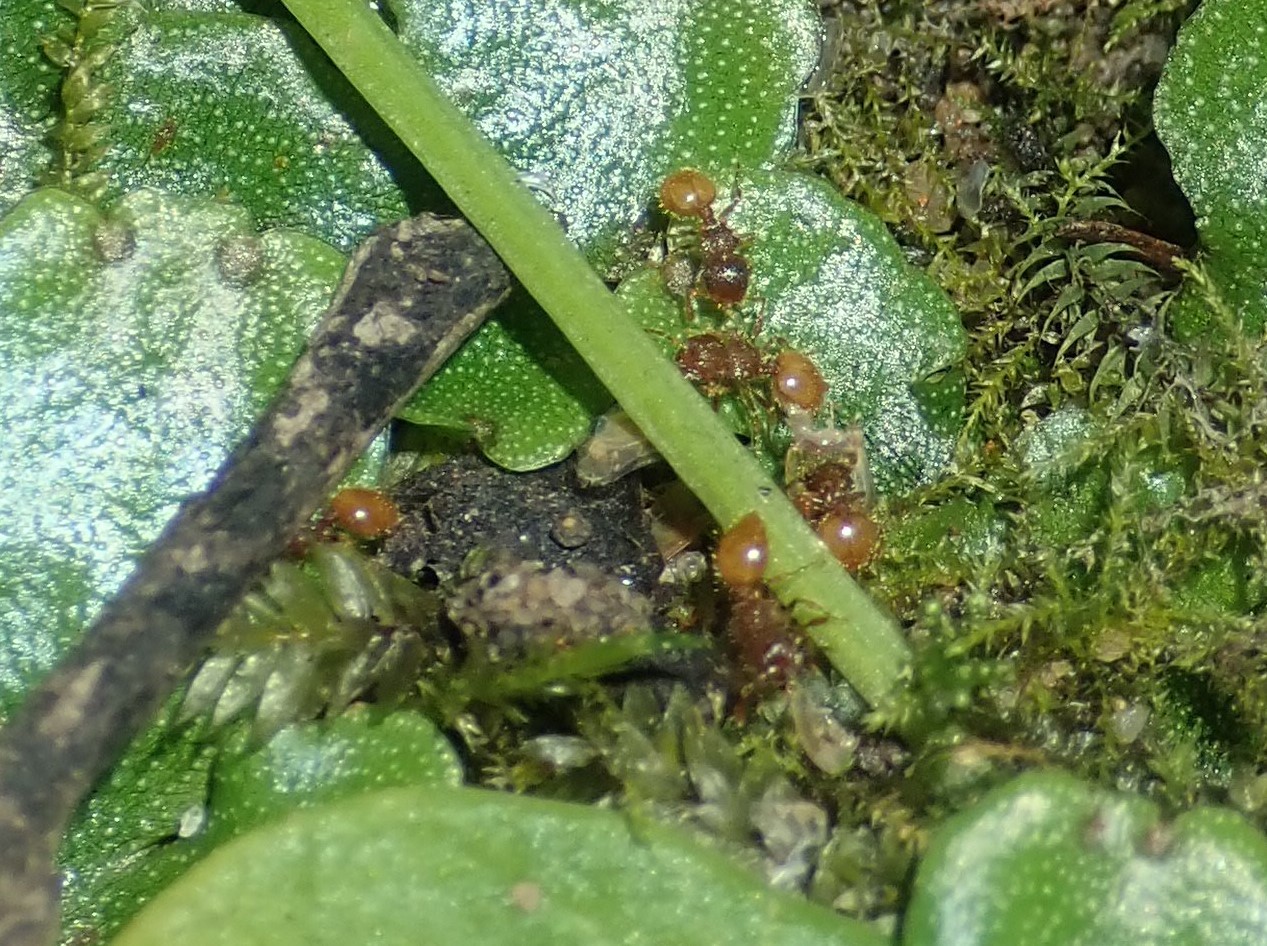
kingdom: Animalia
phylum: Arthropoda
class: Insecta
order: Hymenoptera
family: Formicidae
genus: Meranoplus
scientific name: Meranoplus minor
